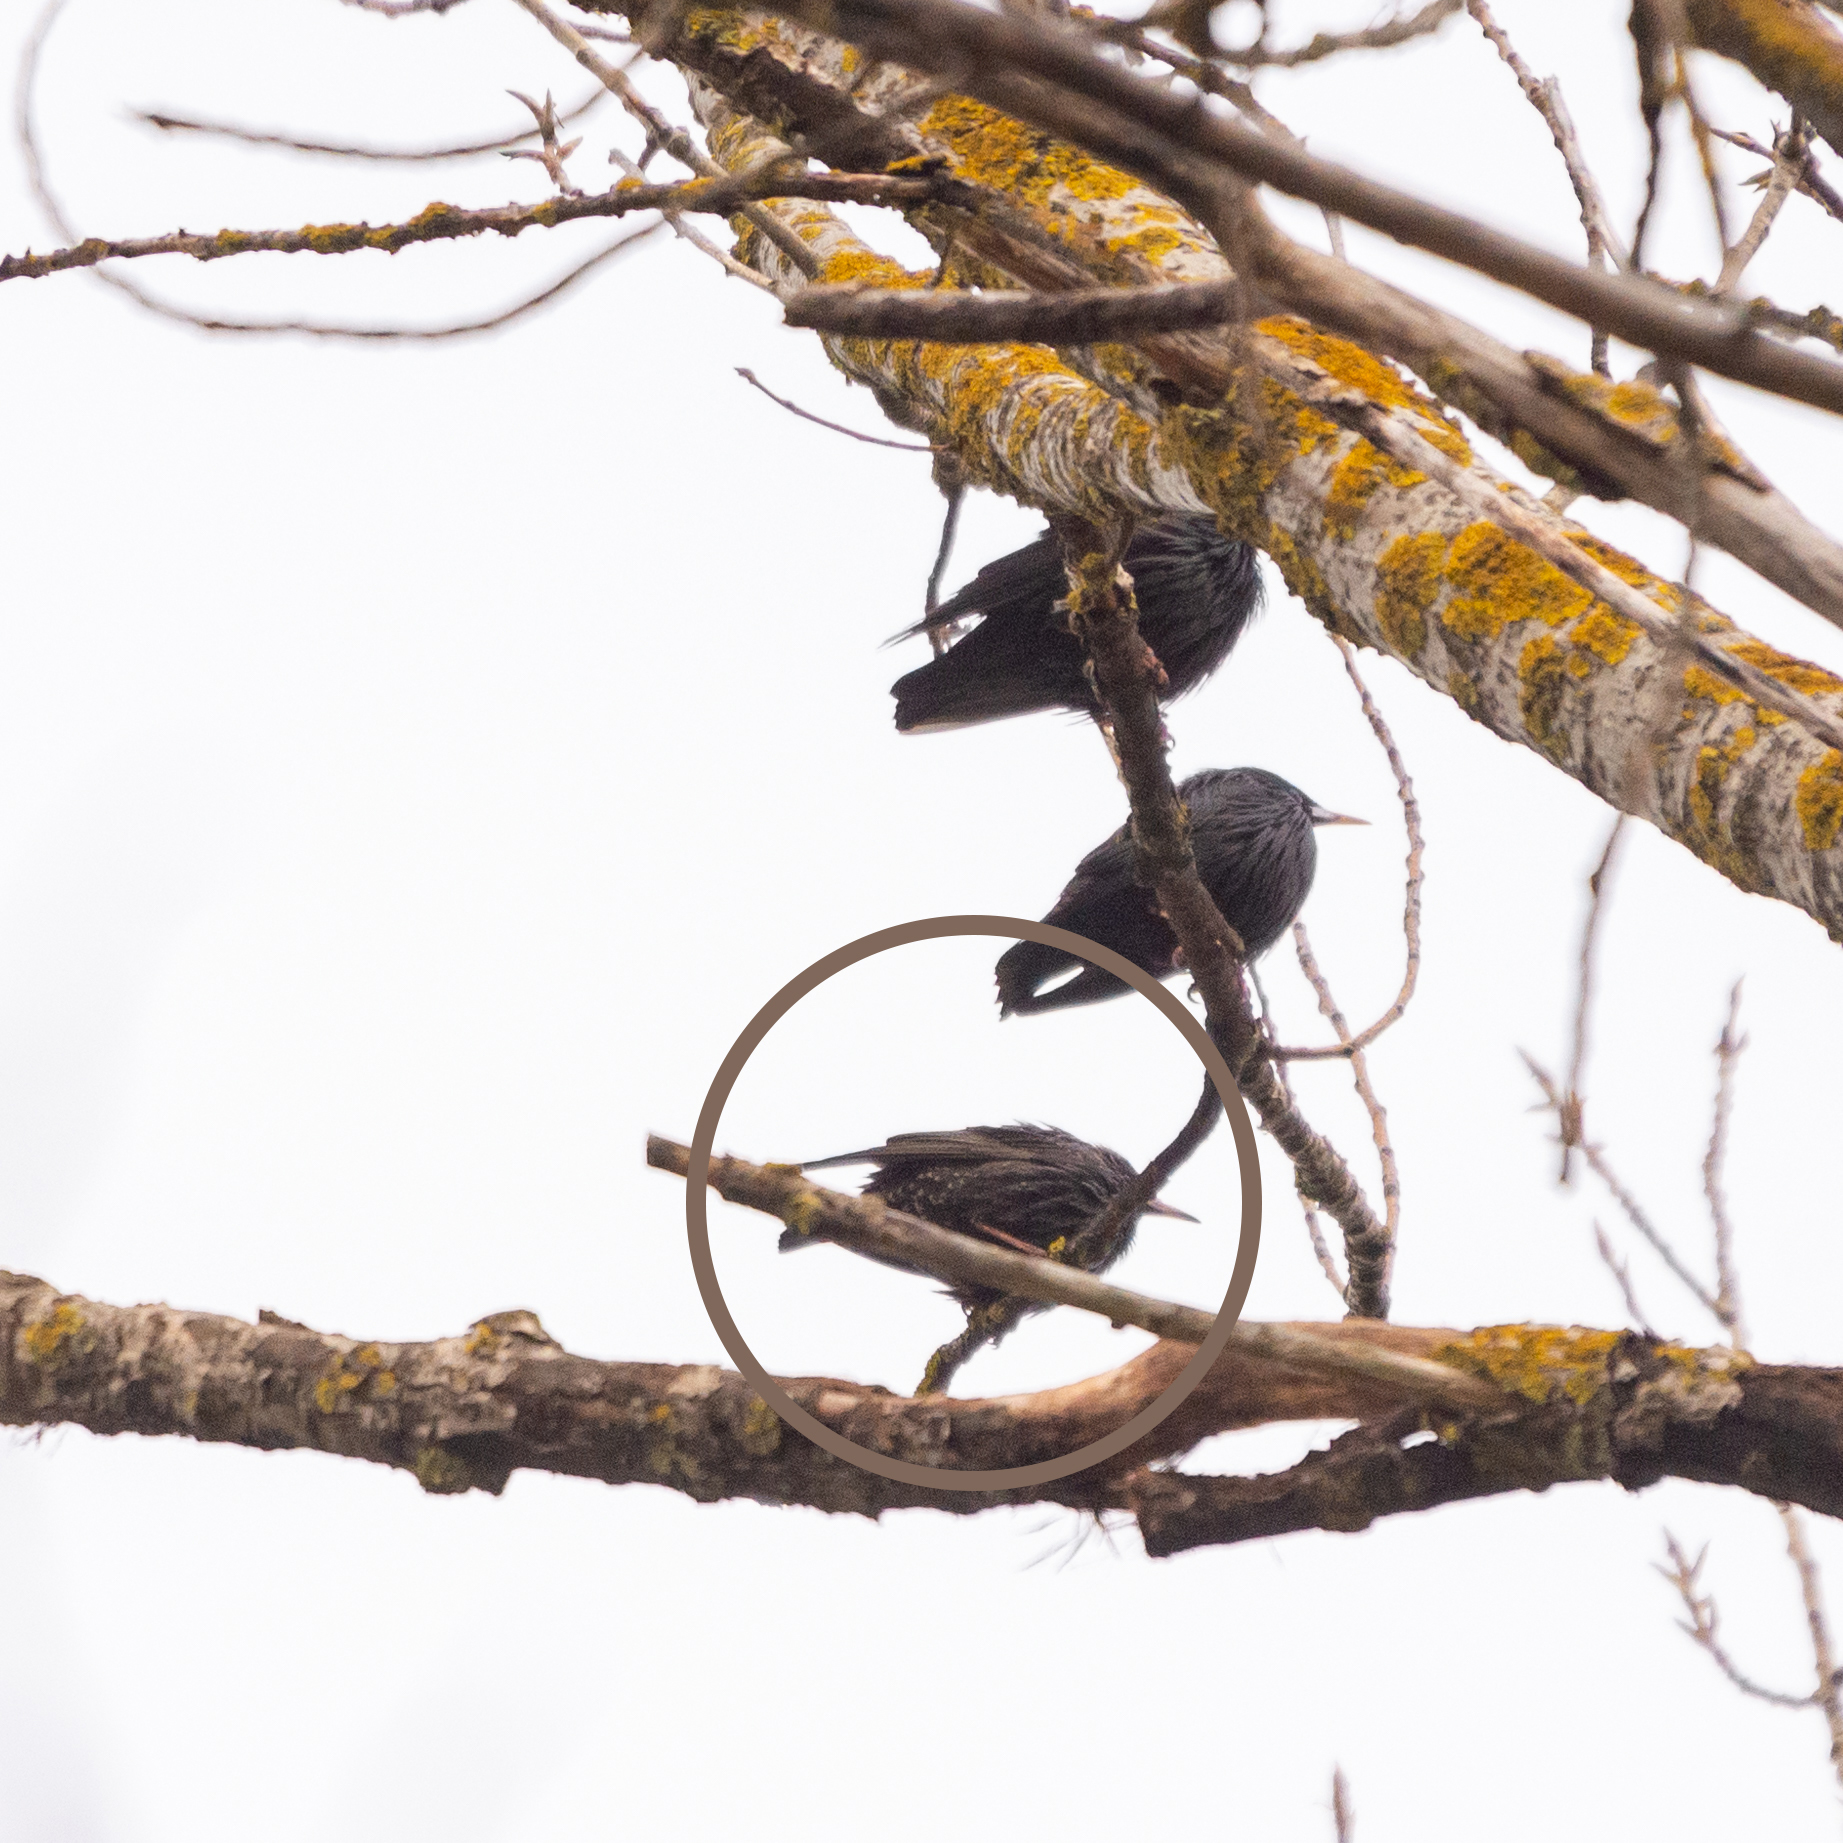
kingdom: Animalia
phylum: Chordata
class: Aves
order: Passeriformes
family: Sturnidae
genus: Sturnus
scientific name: Sturnus unicolor
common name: Spotless starling
